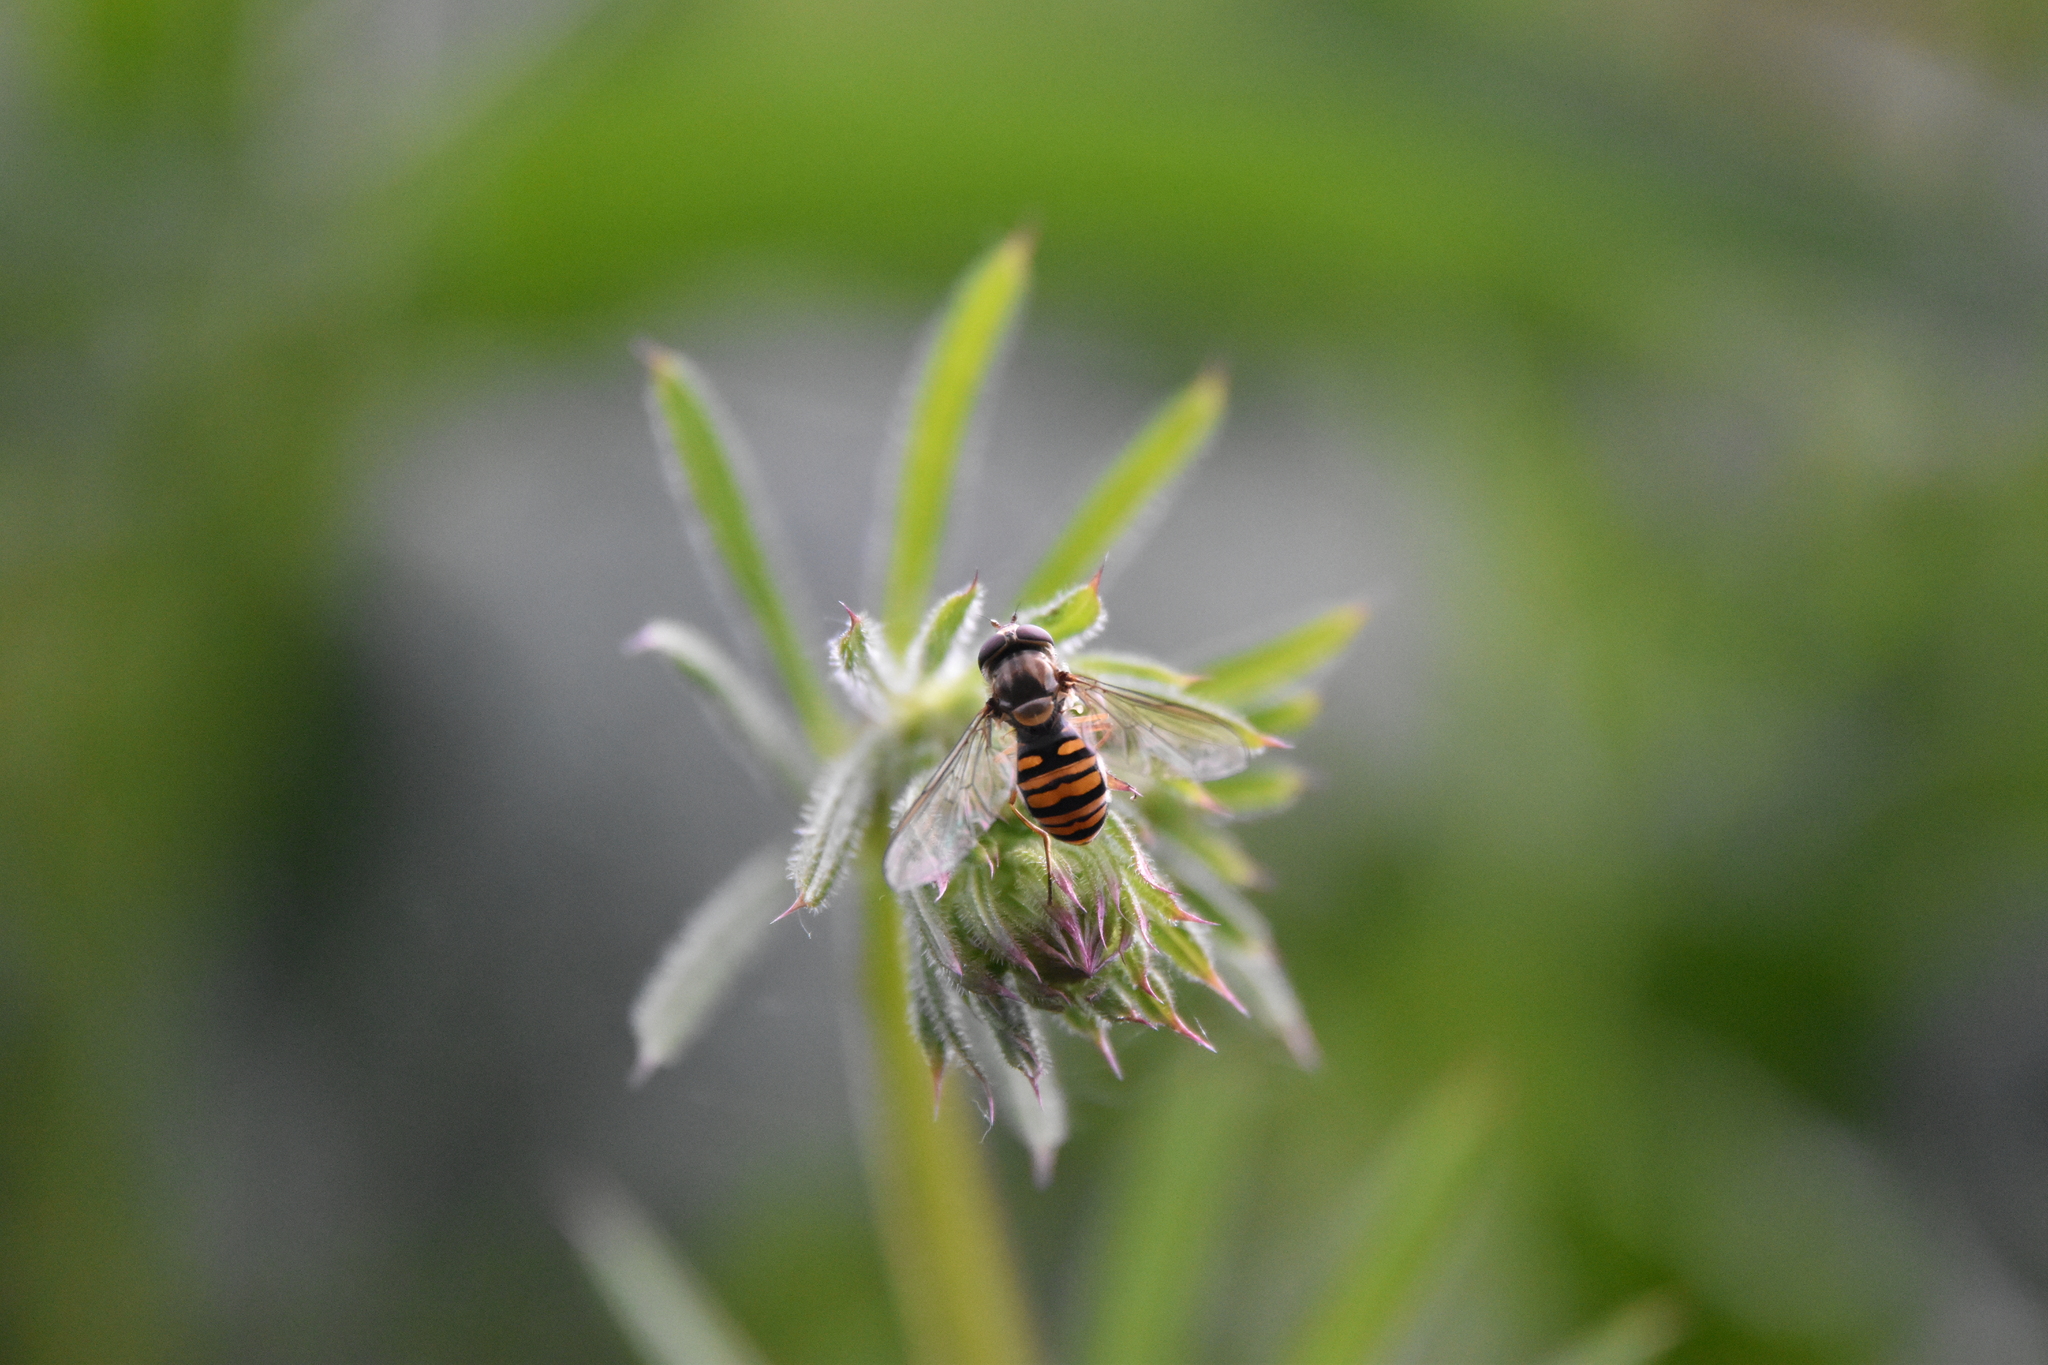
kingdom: Animalia
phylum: Arthropoda
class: Insecta
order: Diptera
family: Syrphidae
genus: Episyrphus
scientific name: Episyrphus balteatus
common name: Marmalade hoverfly
